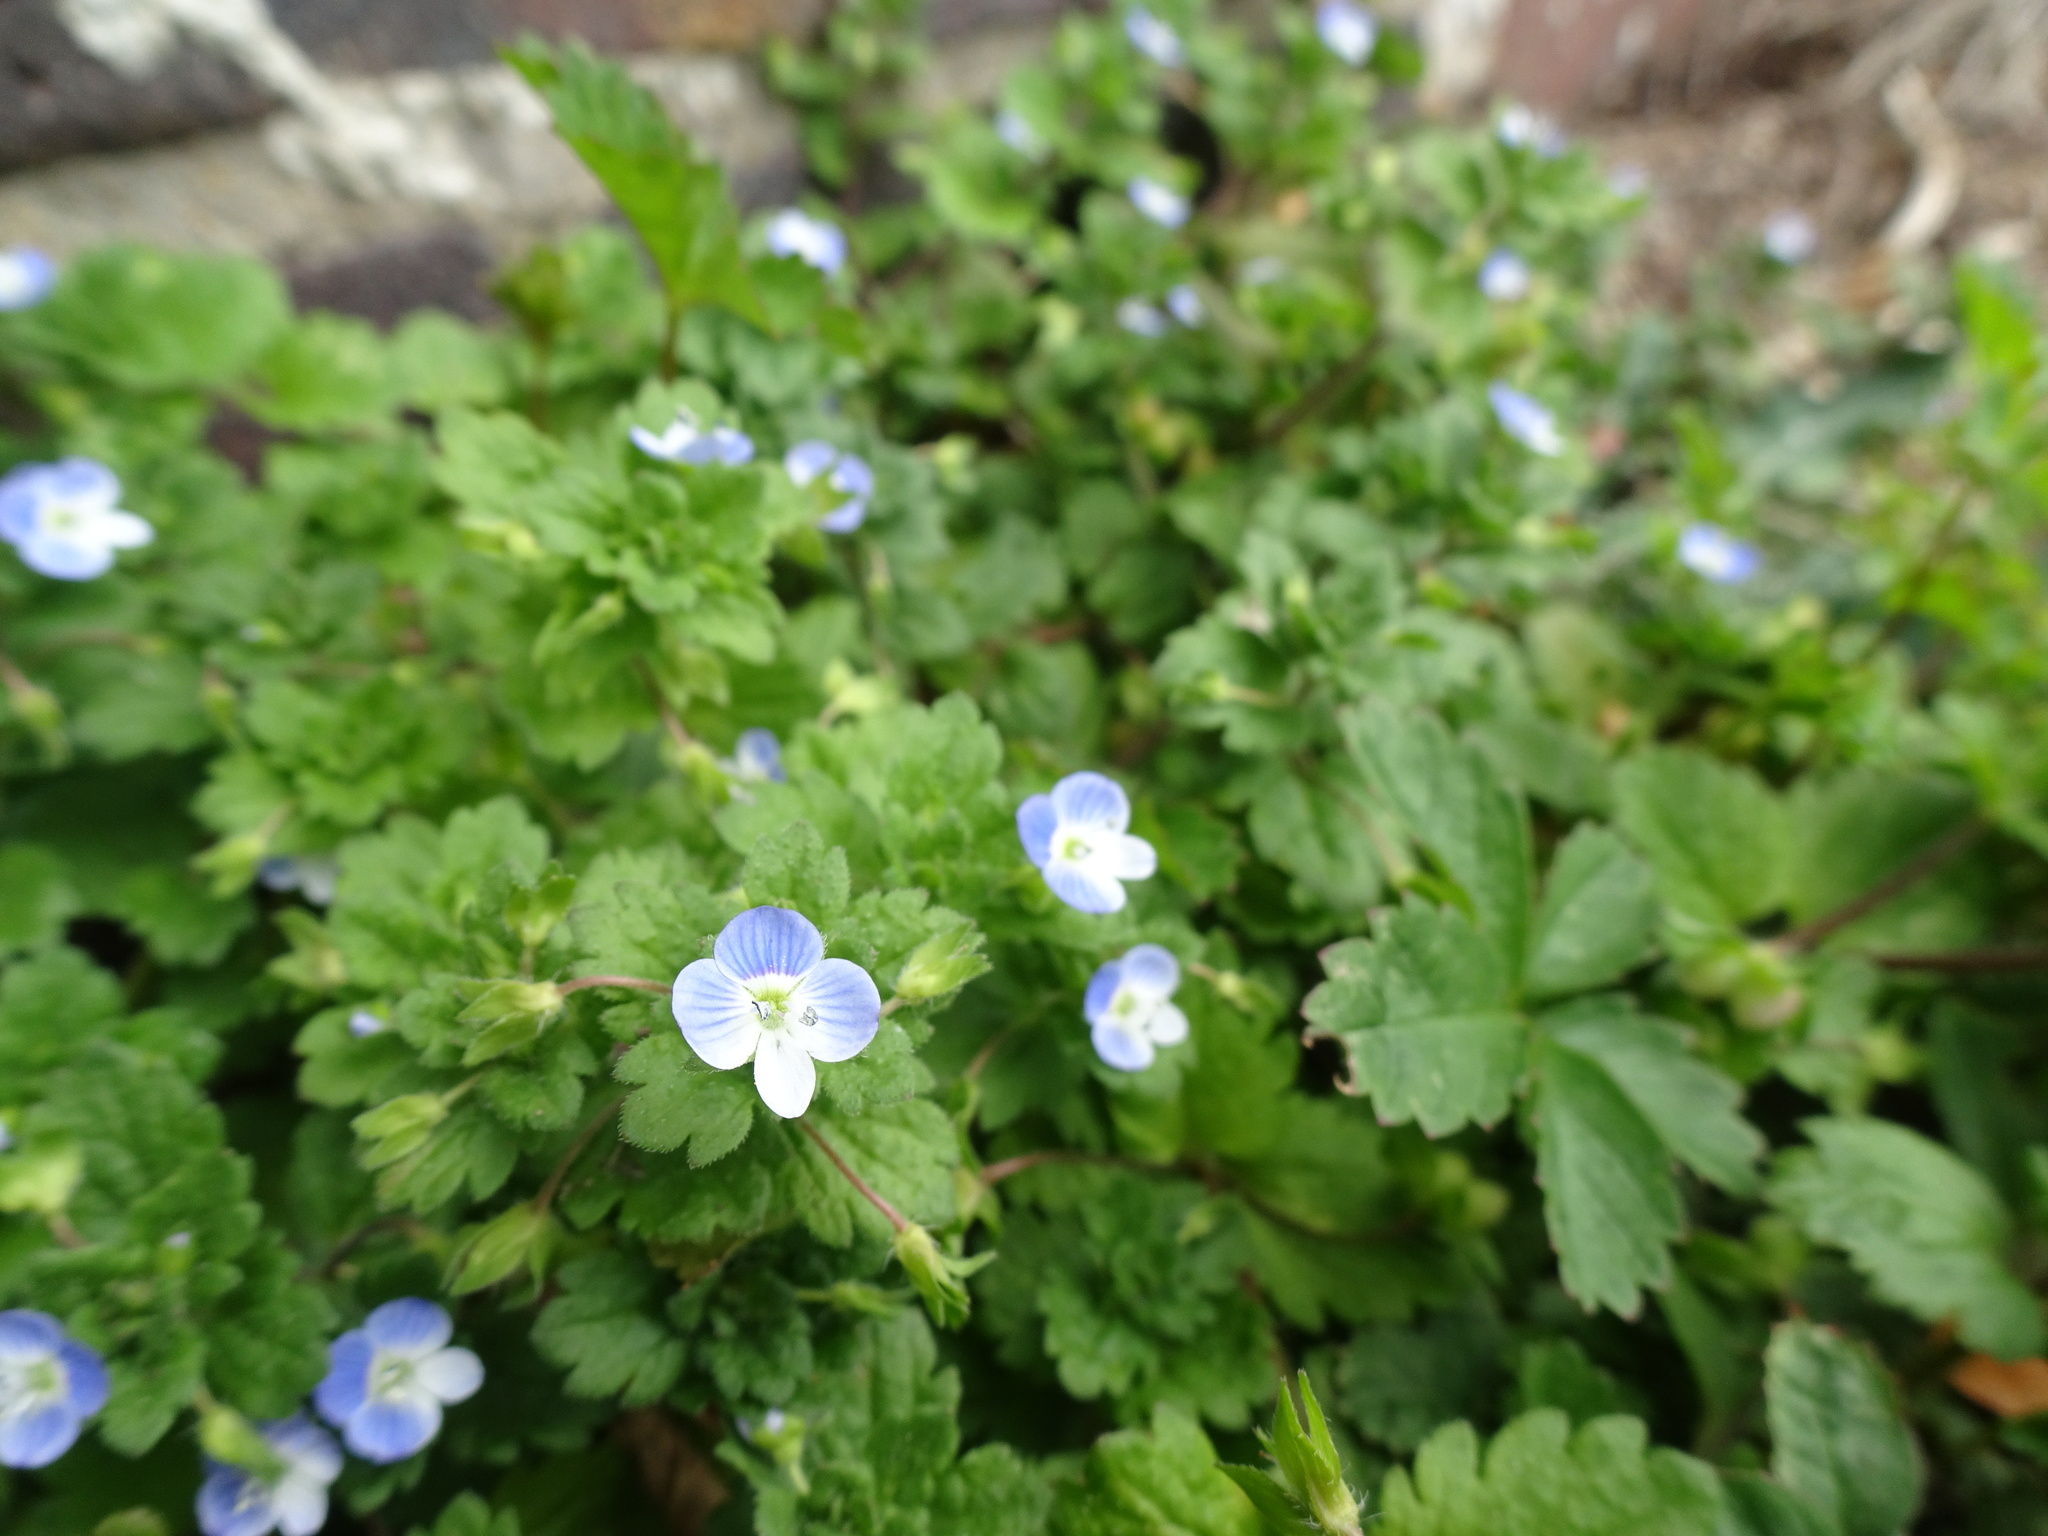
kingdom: Plantae
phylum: Tracheophyta
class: Magnoliopsida
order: Lamiales
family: Plantaginaceae
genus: Veronica
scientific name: Veronica persica
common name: Common field-speedwell
